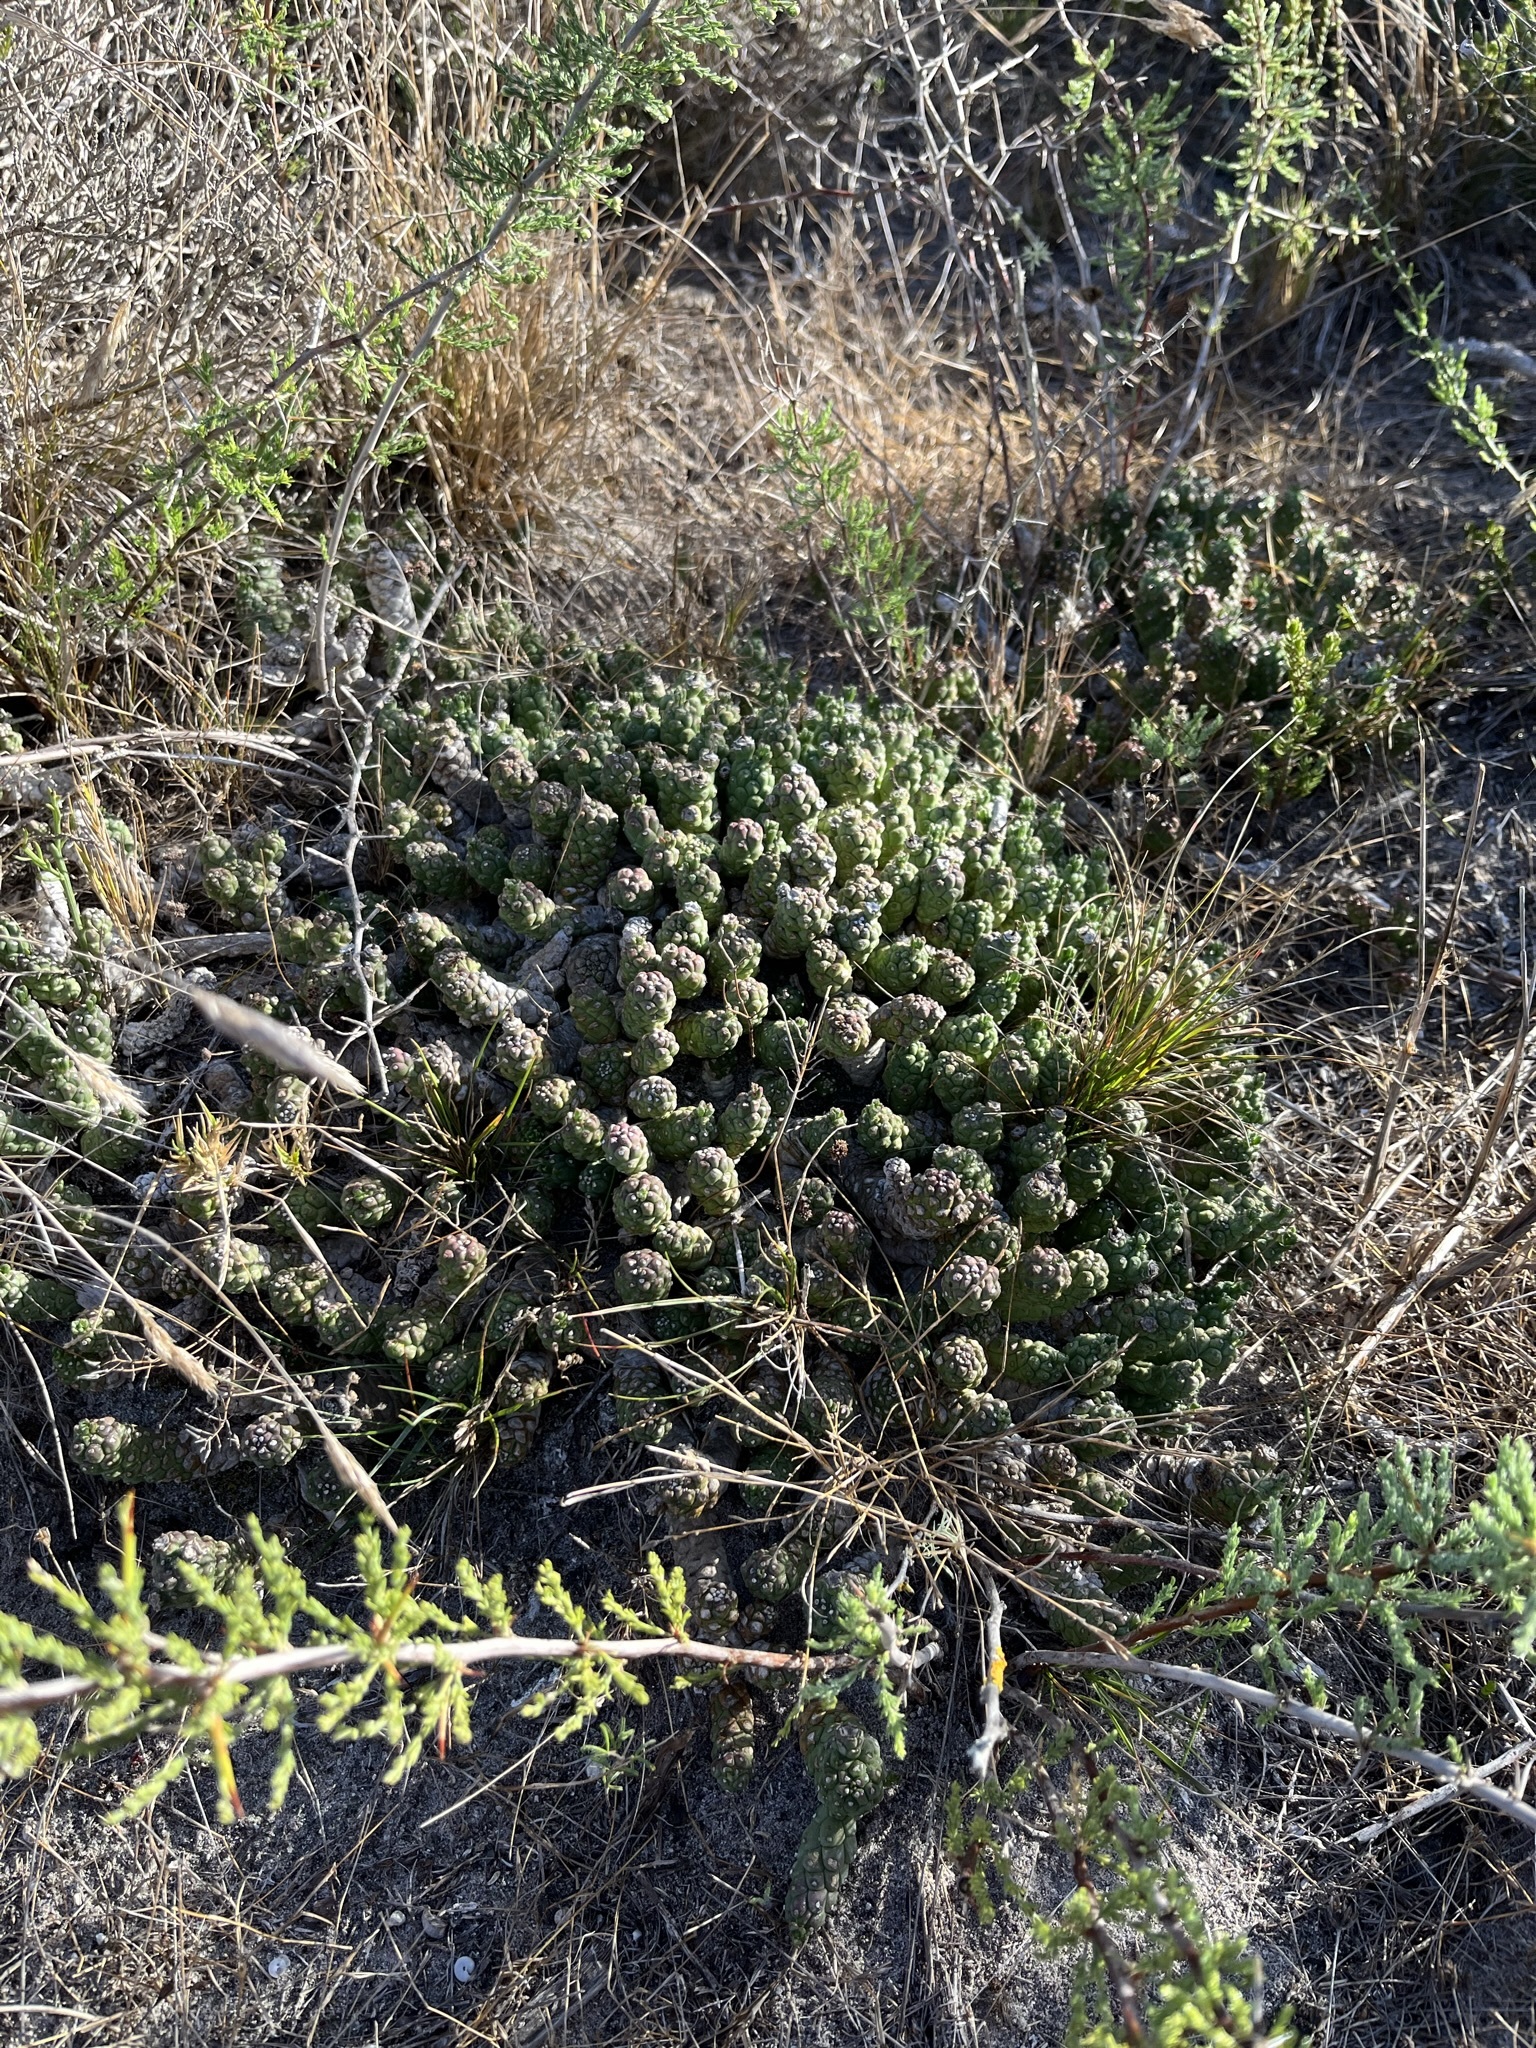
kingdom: Plantae
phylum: Tracheophyta
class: Magnoliopsida
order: Malpighiales
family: Euphorbiaceae
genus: Euphorbia
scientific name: Euphorbia caput-medusae
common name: Medusa's-head
